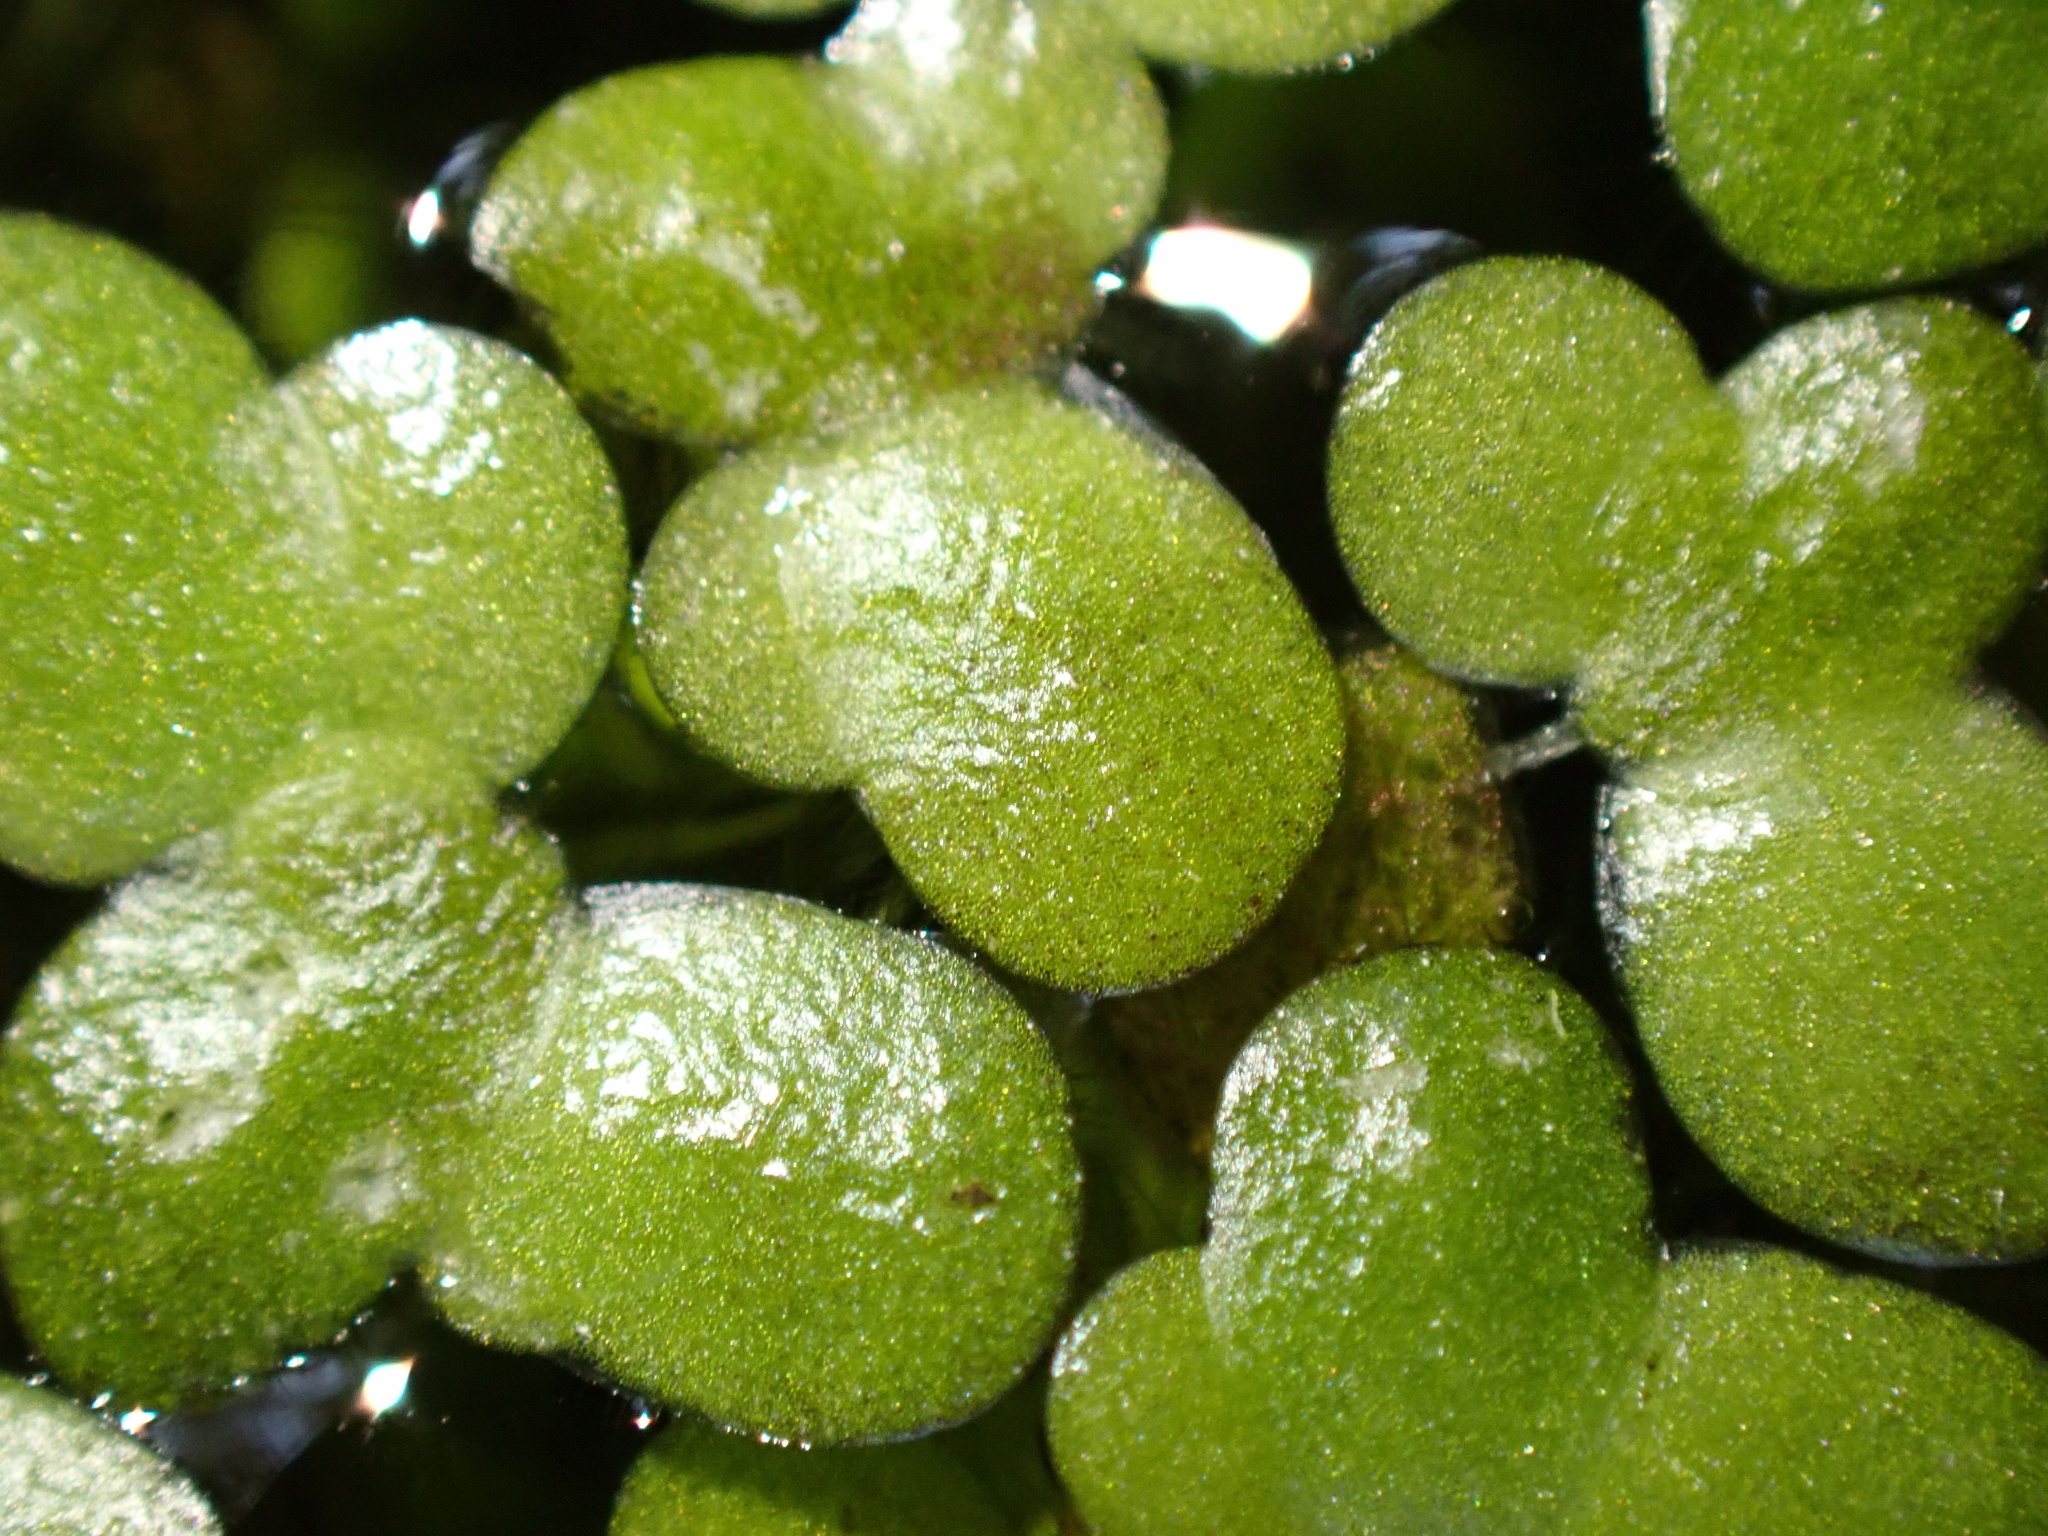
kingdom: Plantae
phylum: Tracheophyta
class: Liliopsida
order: Alismatales
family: Araceae
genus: Lemna
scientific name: Lemna minor
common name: Common duckweed
